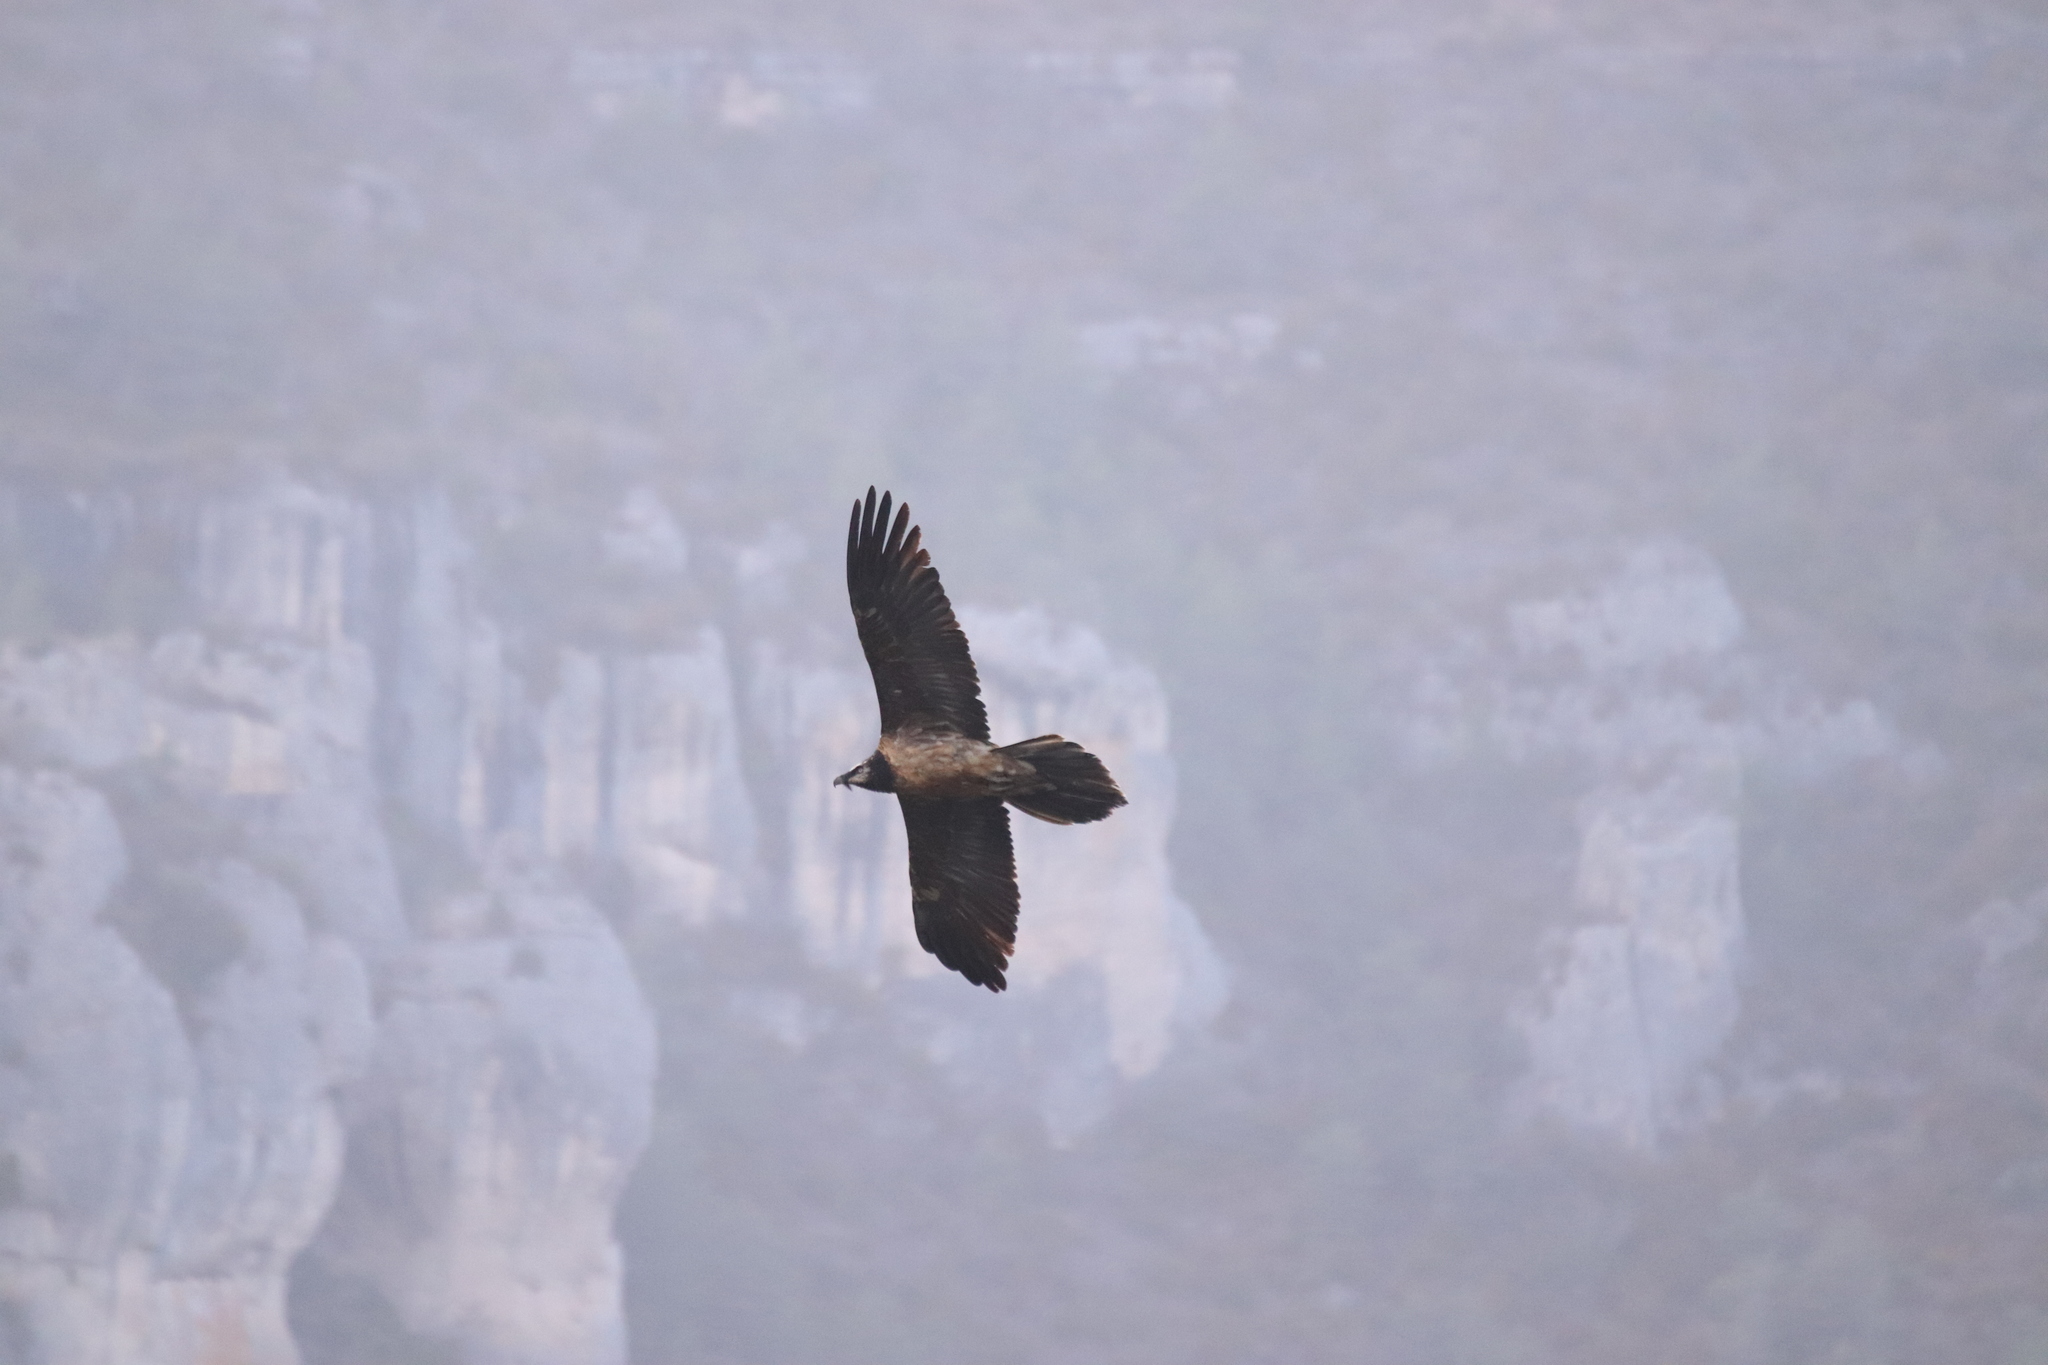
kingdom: Animalia
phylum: Chordata
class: Aves
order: Accipitriformes
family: Accipitridae
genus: Gypaetus
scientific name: Gypaetus barbatus
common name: Bearded vulture
